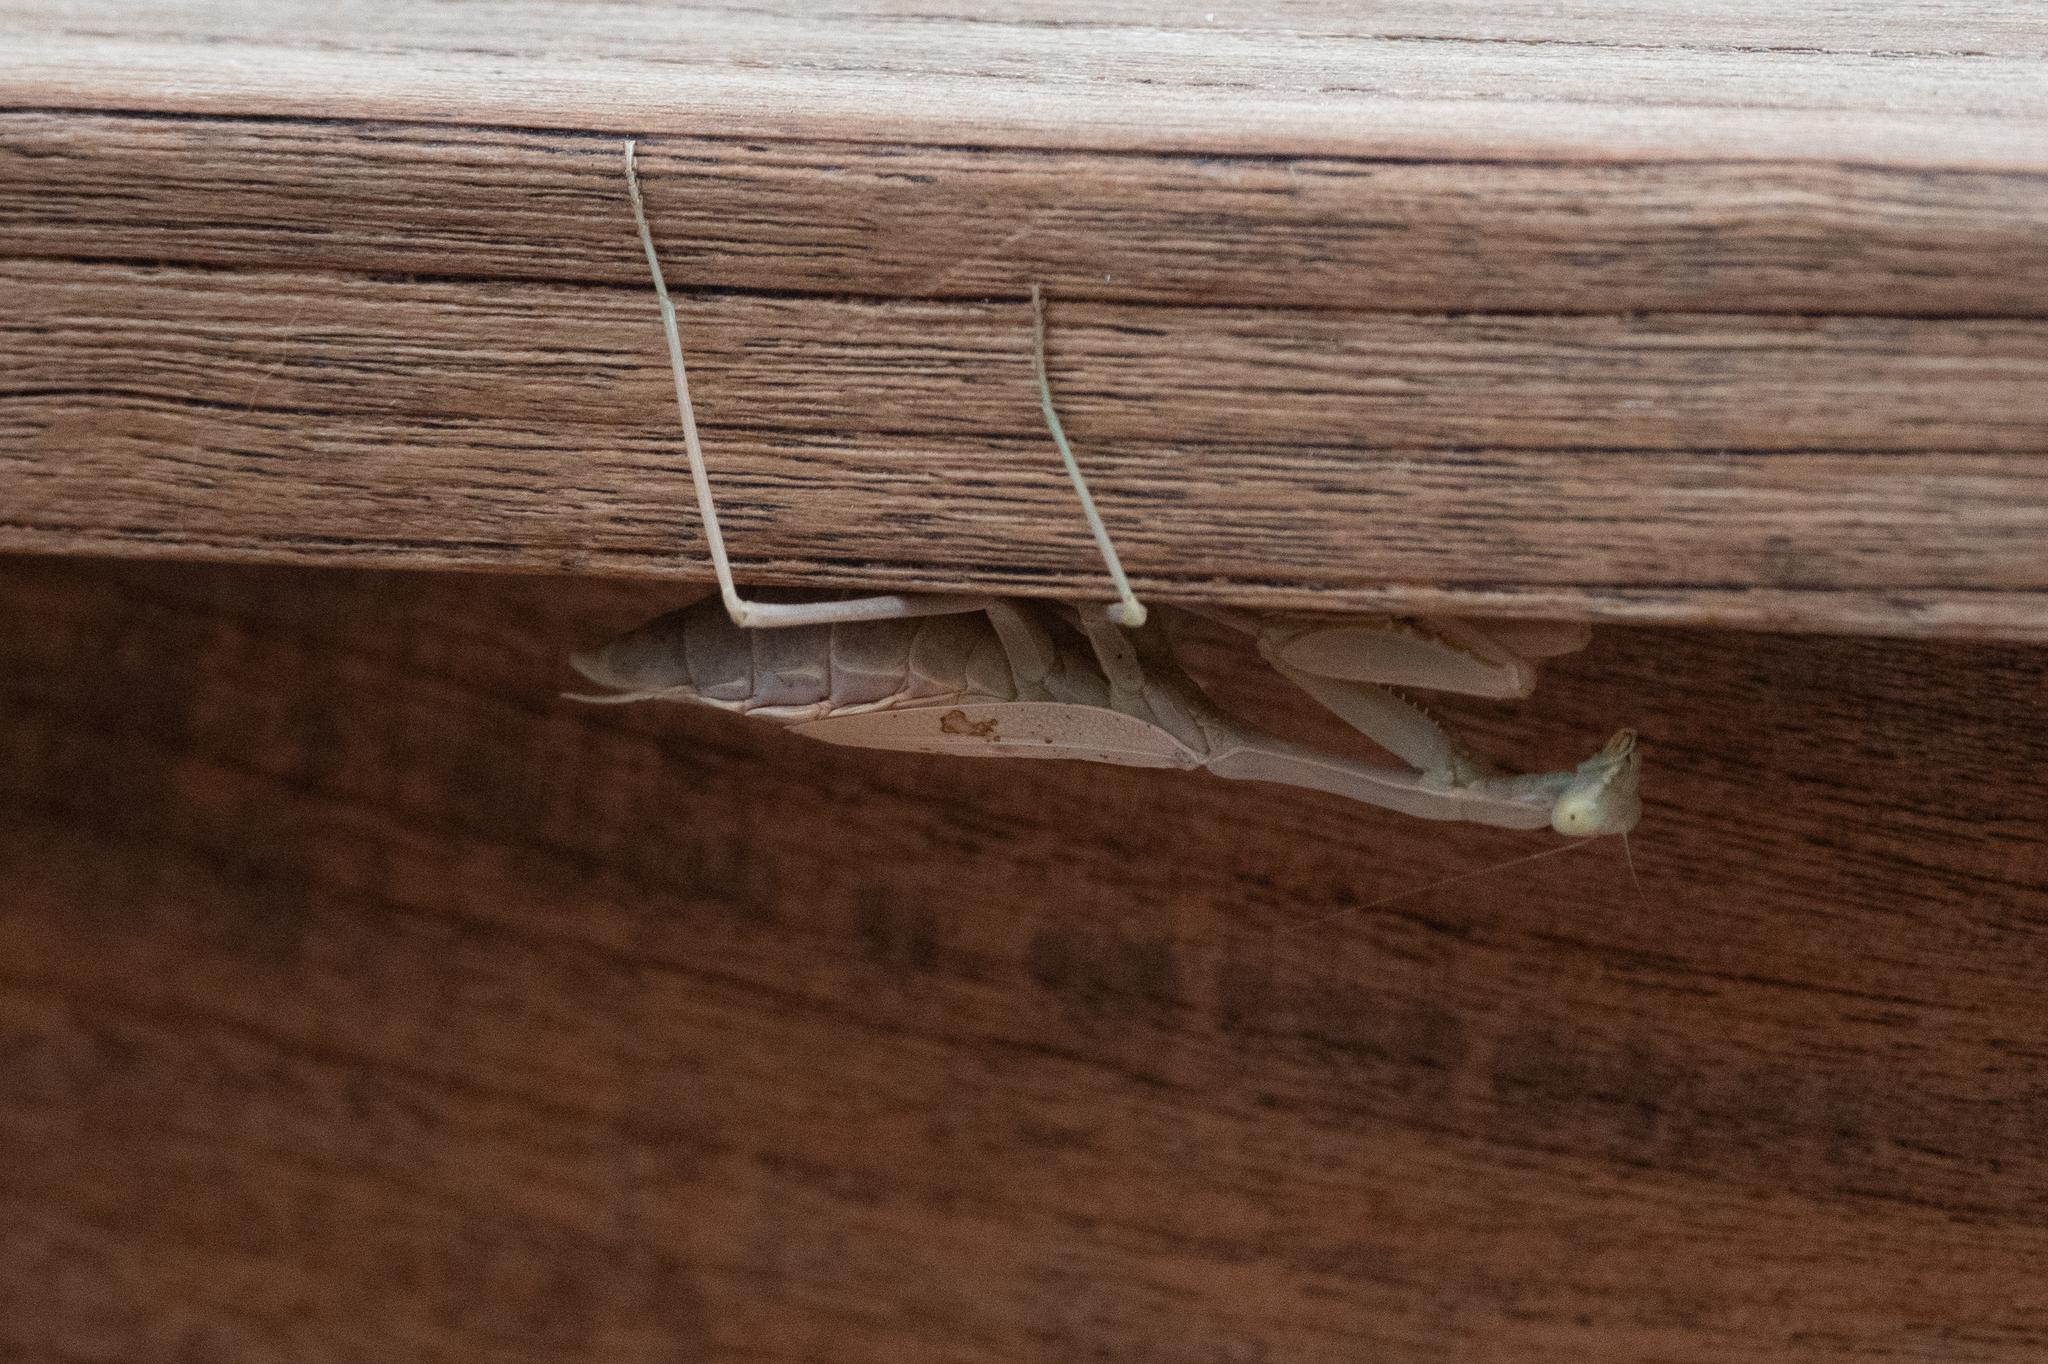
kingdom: Animalia
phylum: Arthropoda
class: Insecta
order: Mantodea
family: Mantidae
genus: Stagmomantis
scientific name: Stagmomantis limbata
